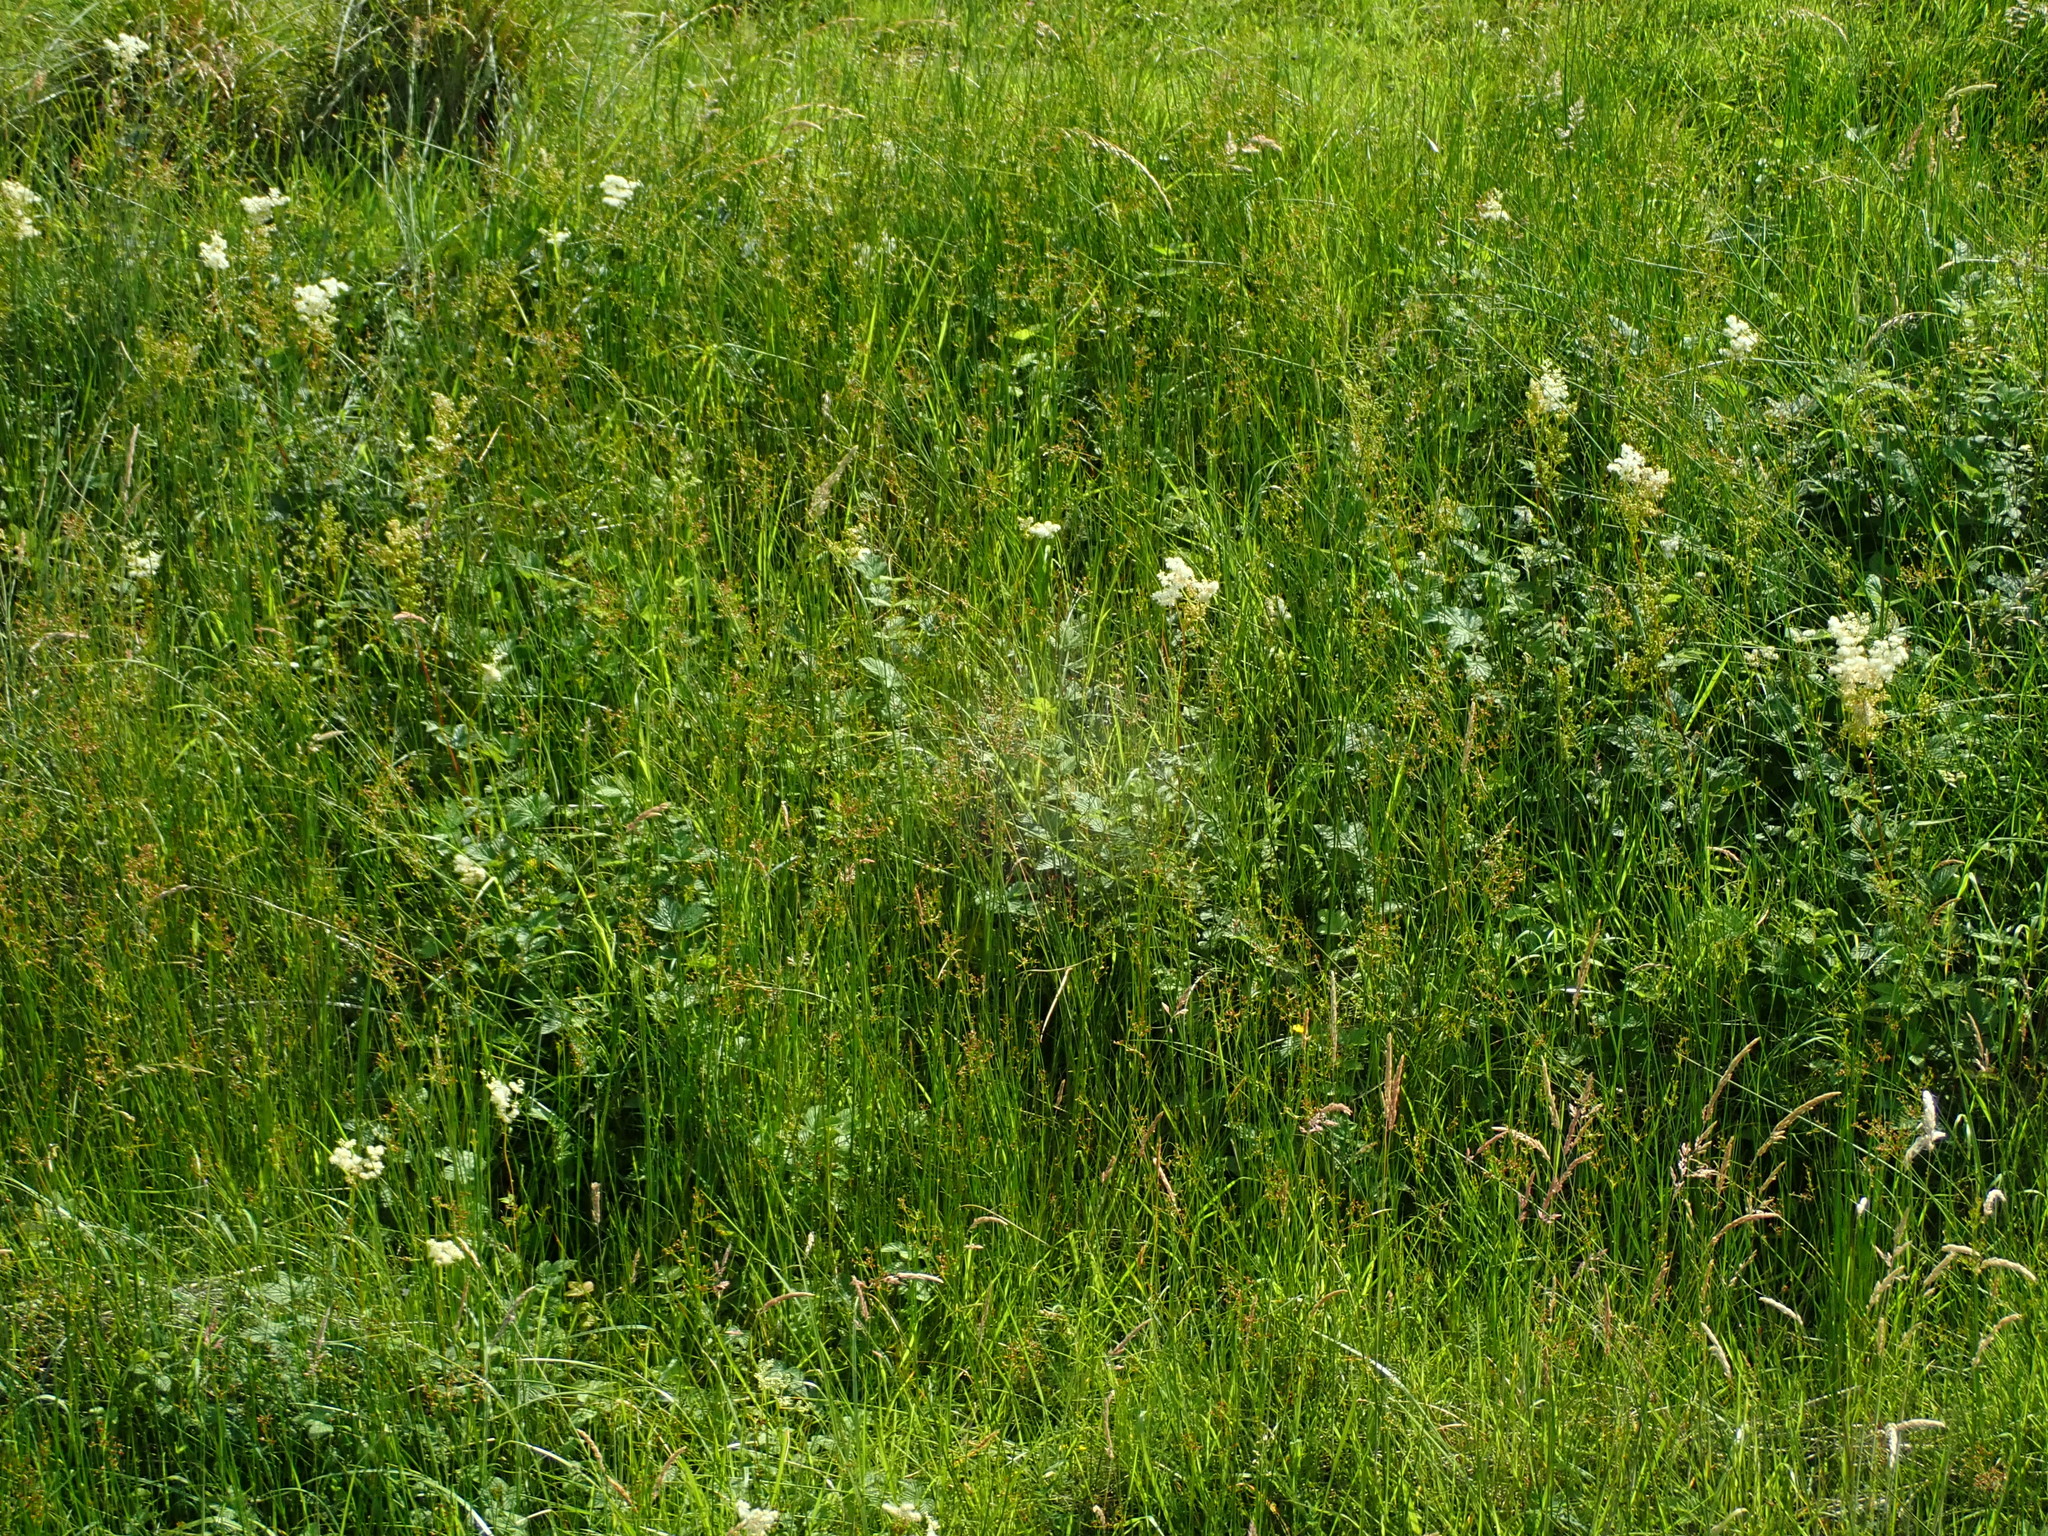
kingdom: Plantae
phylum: Tracheophyta
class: Magnoliopsida
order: Rosales
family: Rosaceae
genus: Filipendula
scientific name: Filipendula ulmaria
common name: Meadowsweet
